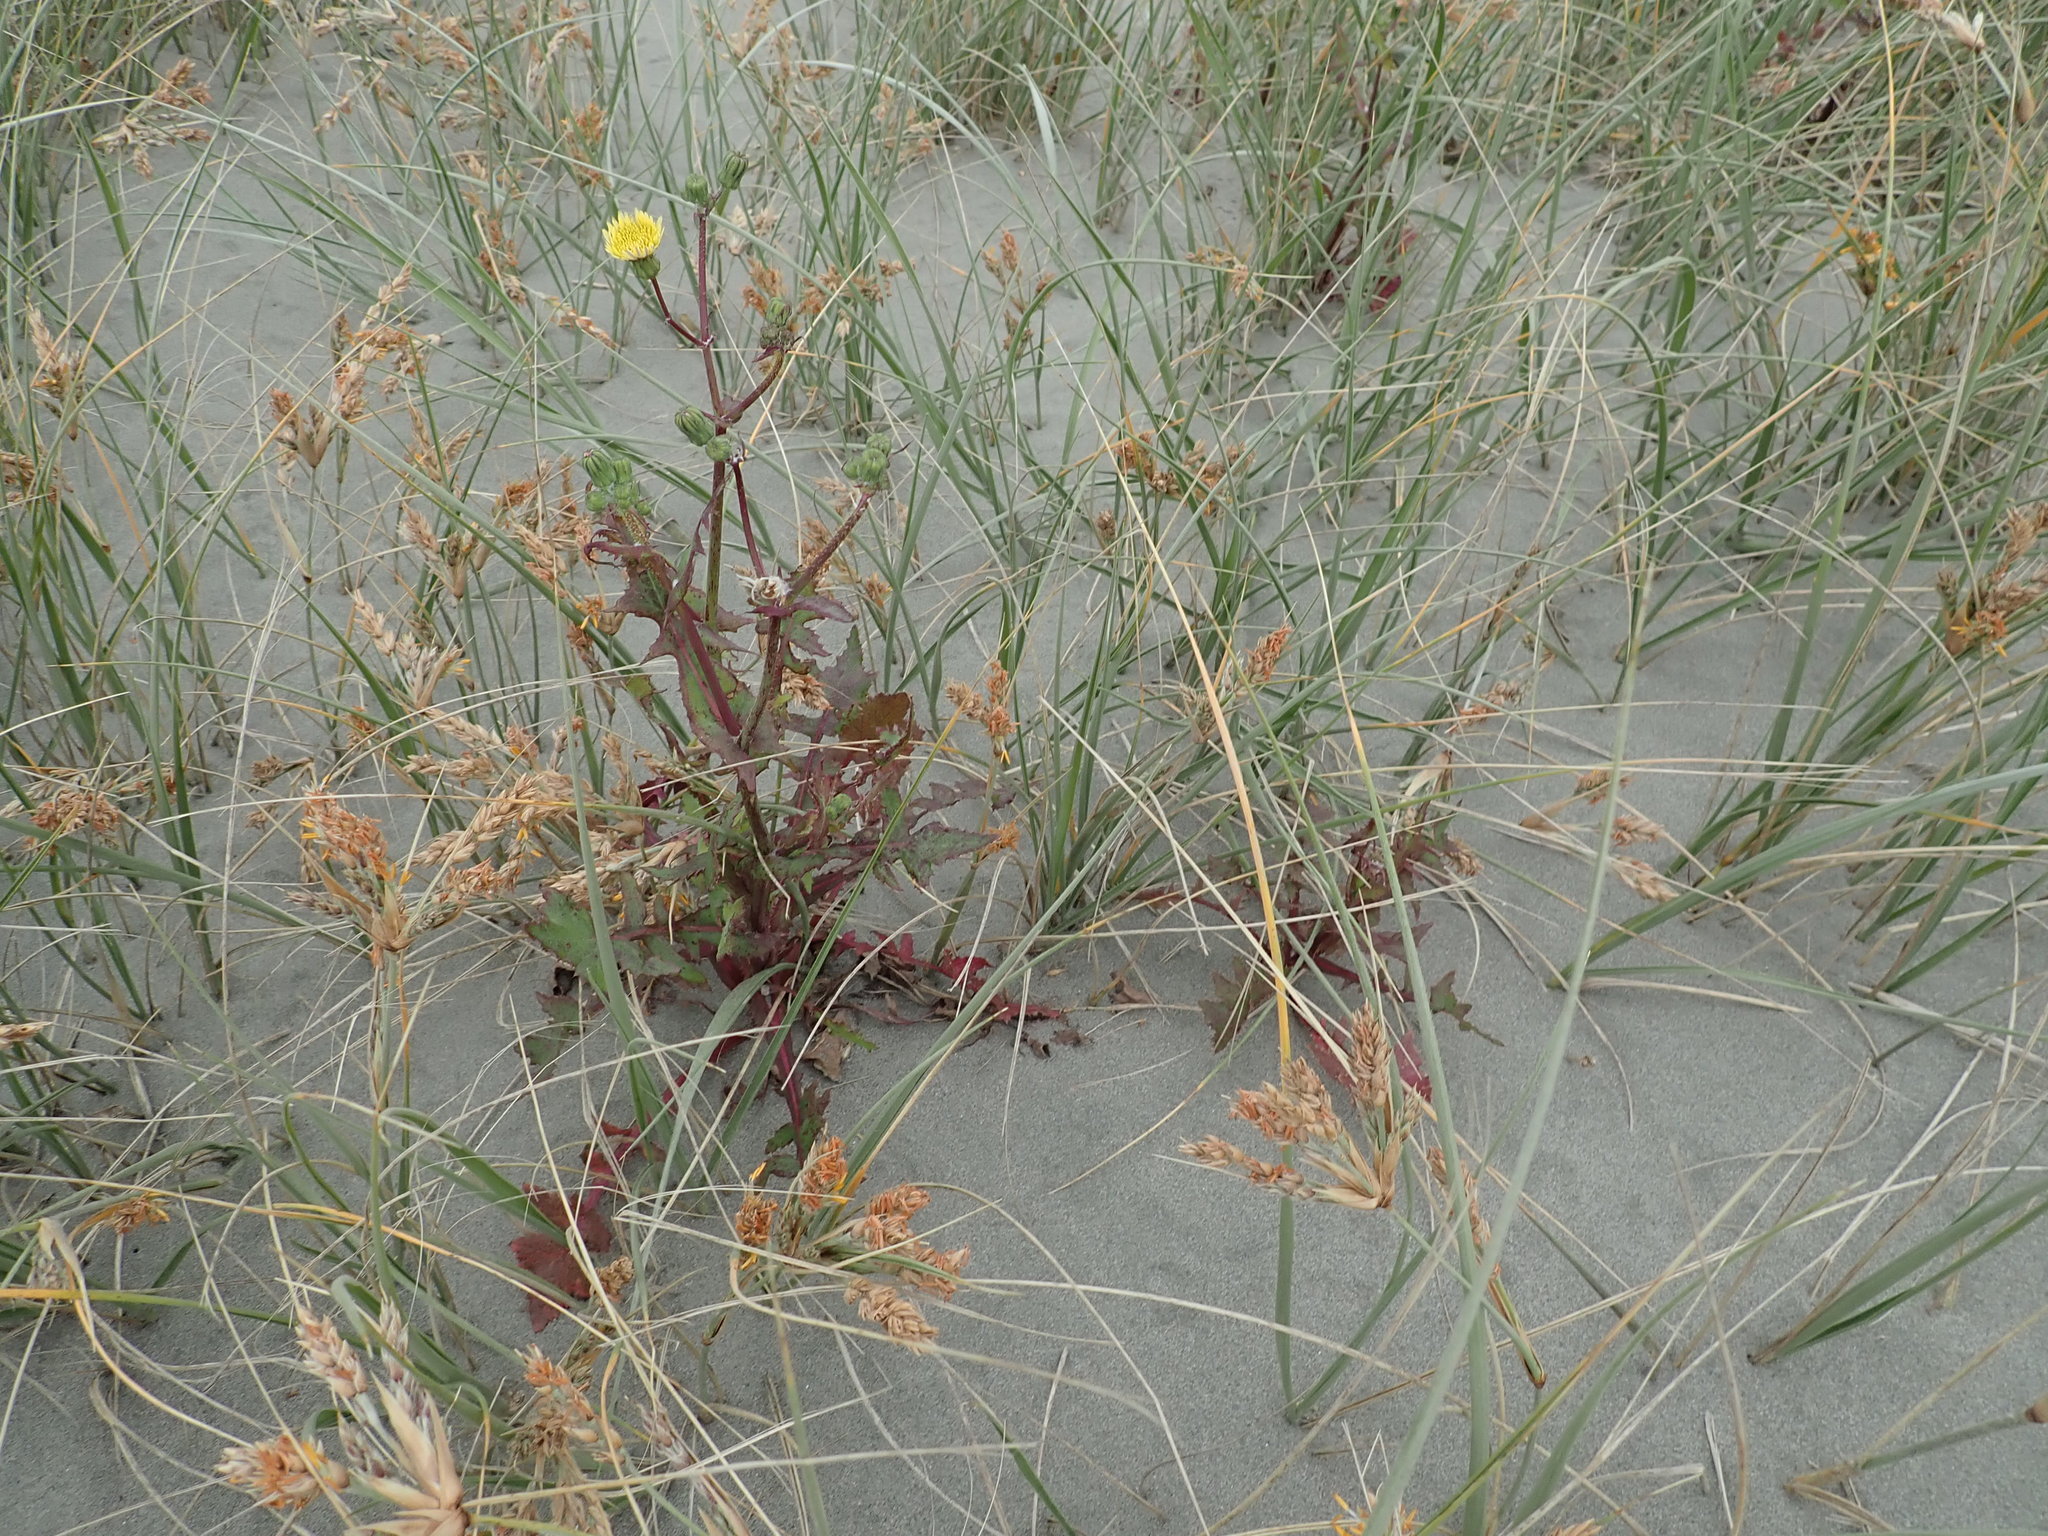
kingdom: Plantae
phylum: Tracheophyta
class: Magnoliopsida
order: Asterales
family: Asteraceae
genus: Sonchus
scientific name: Sonchus oleraceus
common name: Common sowthistle
